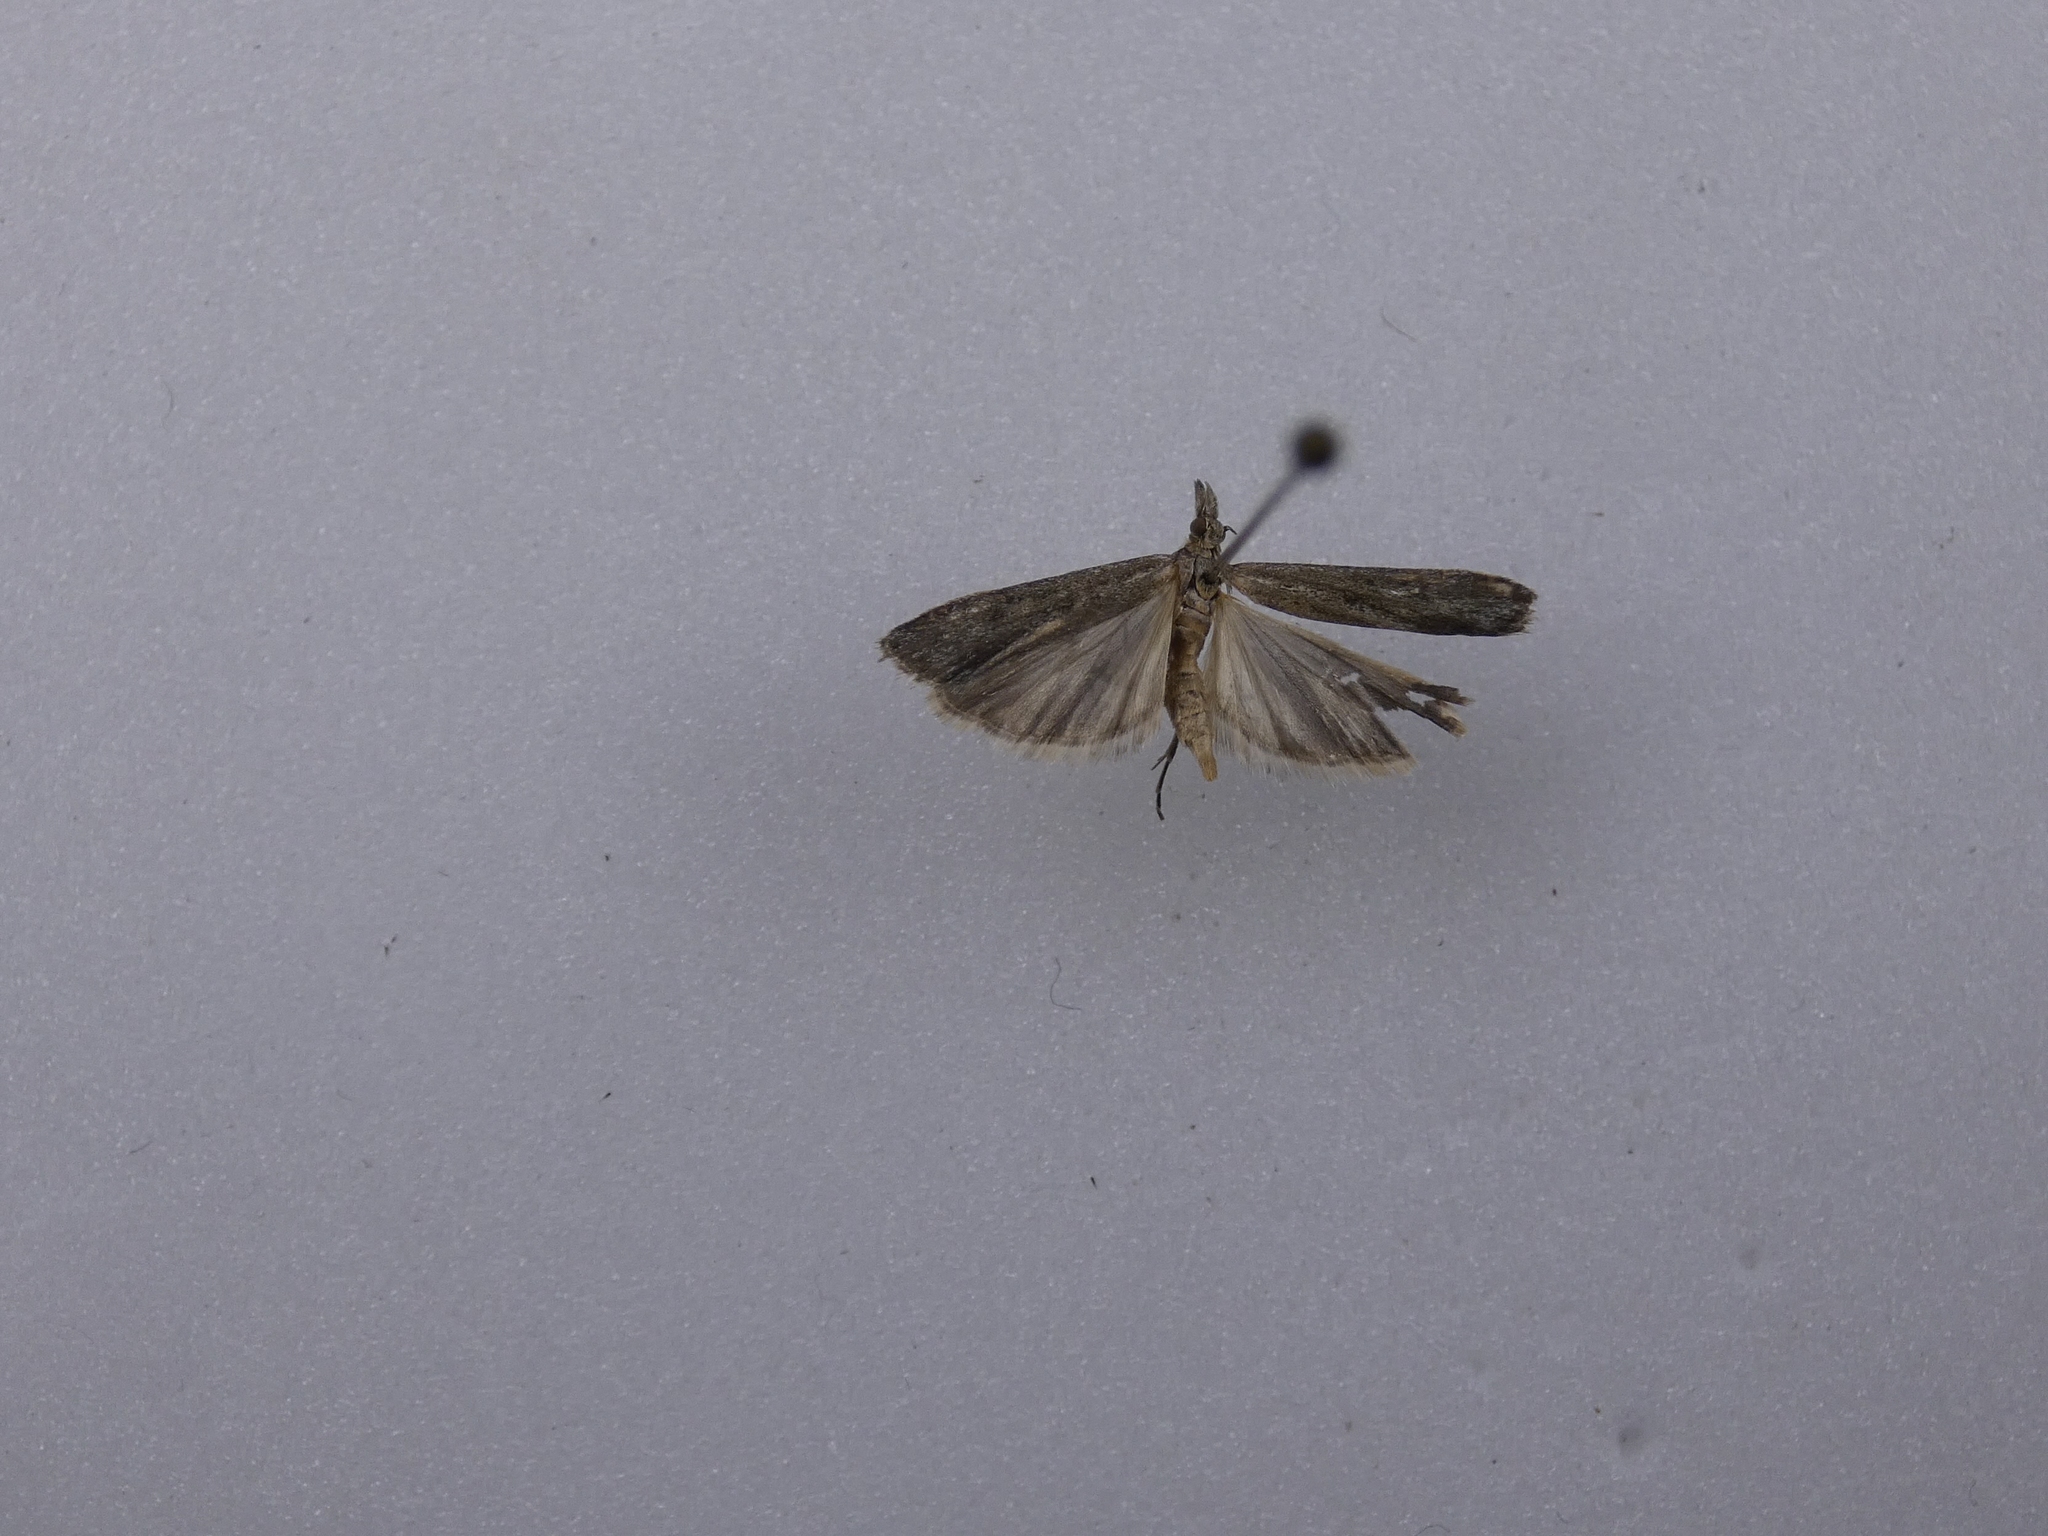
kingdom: Animalia
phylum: Arthropoda
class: Insecta
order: Lepidoptera
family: Crambidae
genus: Eudonia
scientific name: Eudonia leptalea
